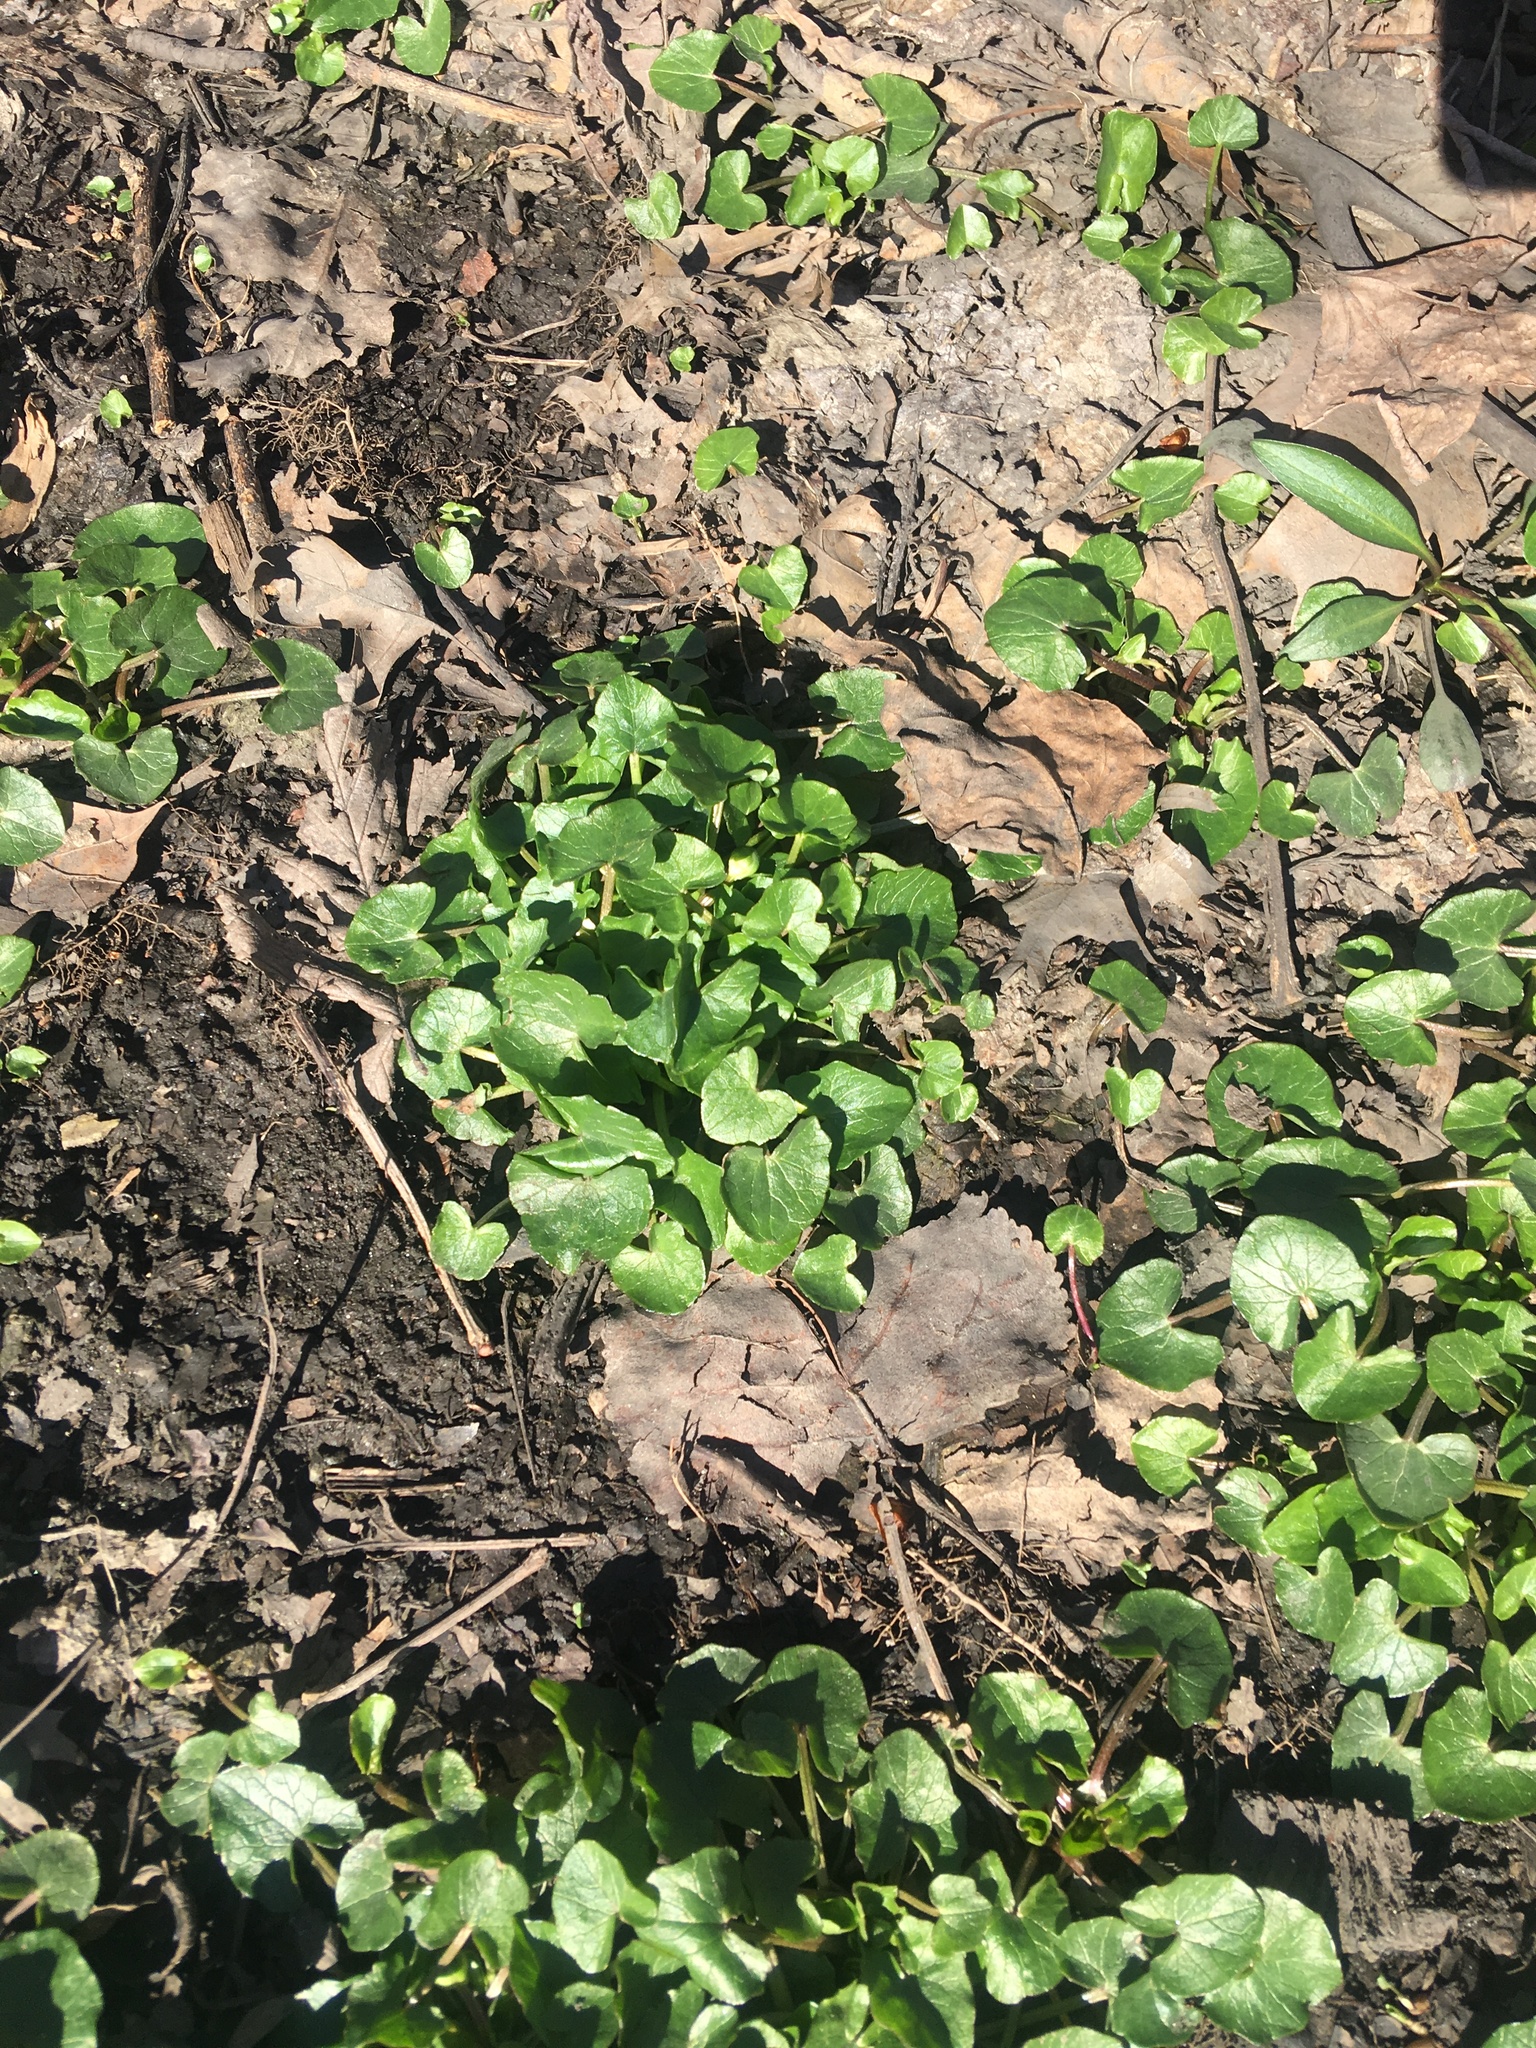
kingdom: Plantae
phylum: Tracheophyta
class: Magnoliopsida
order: Ranunculales
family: Ranunculaceae
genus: Ficaria
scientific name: Ficaria verna
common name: Lesser celandine
